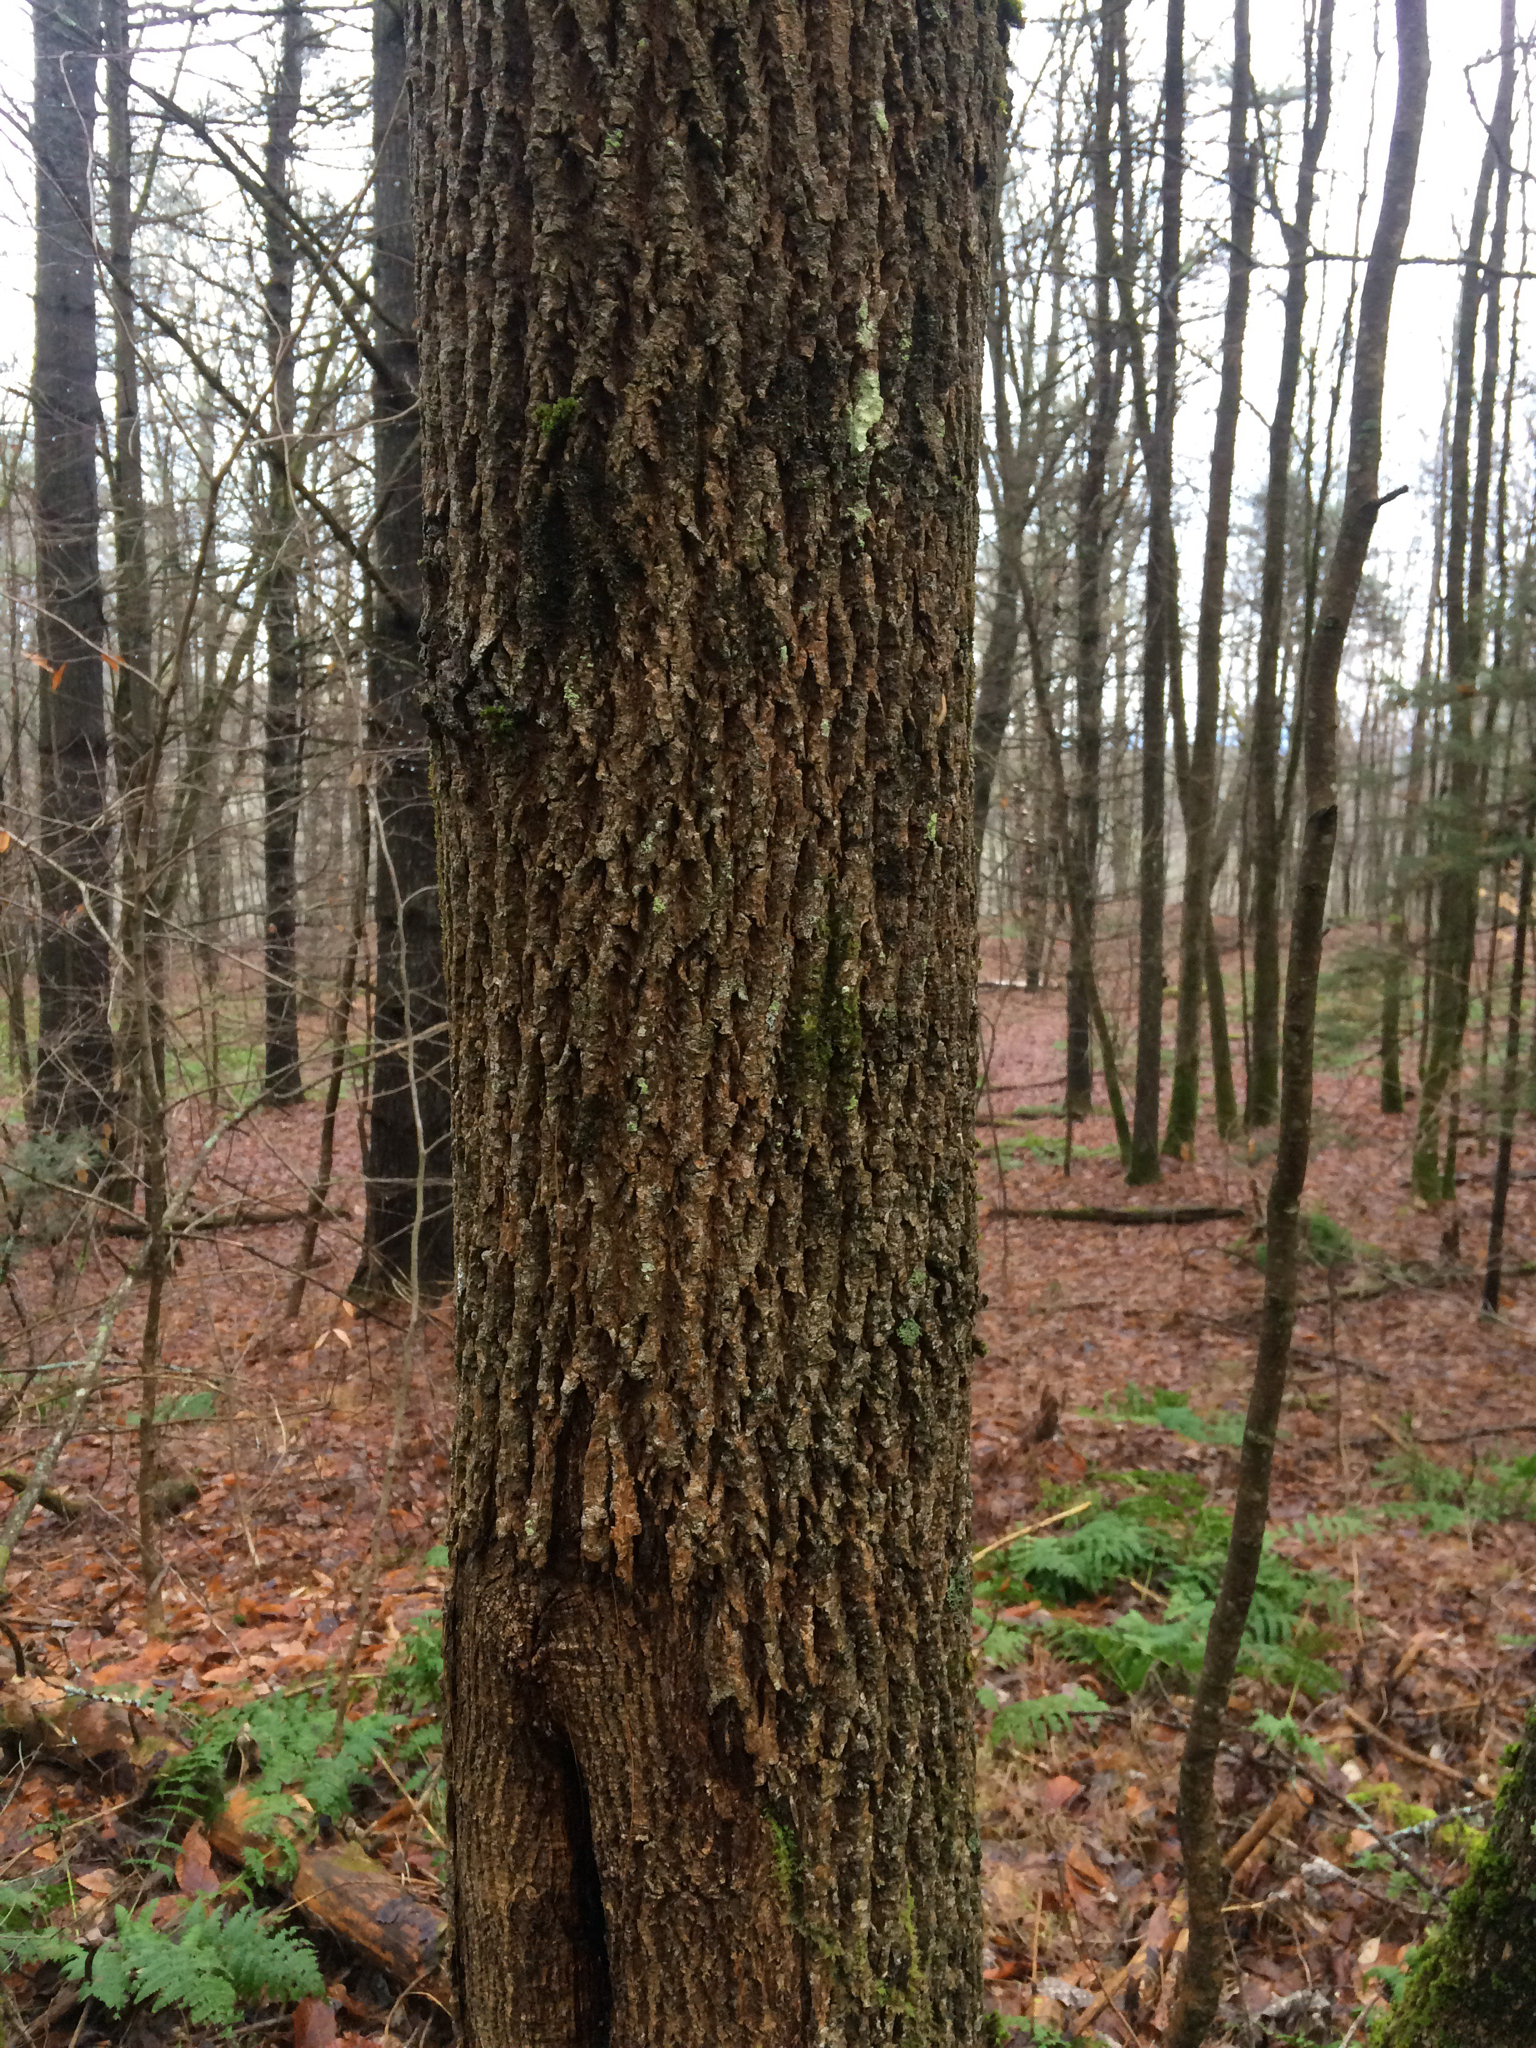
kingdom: Plantae
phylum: Tracheophyta
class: Magnoliopsida
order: Lamiales
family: Oleaceae
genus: Fraxinus
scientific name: Fraxinus americana
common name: White ash
